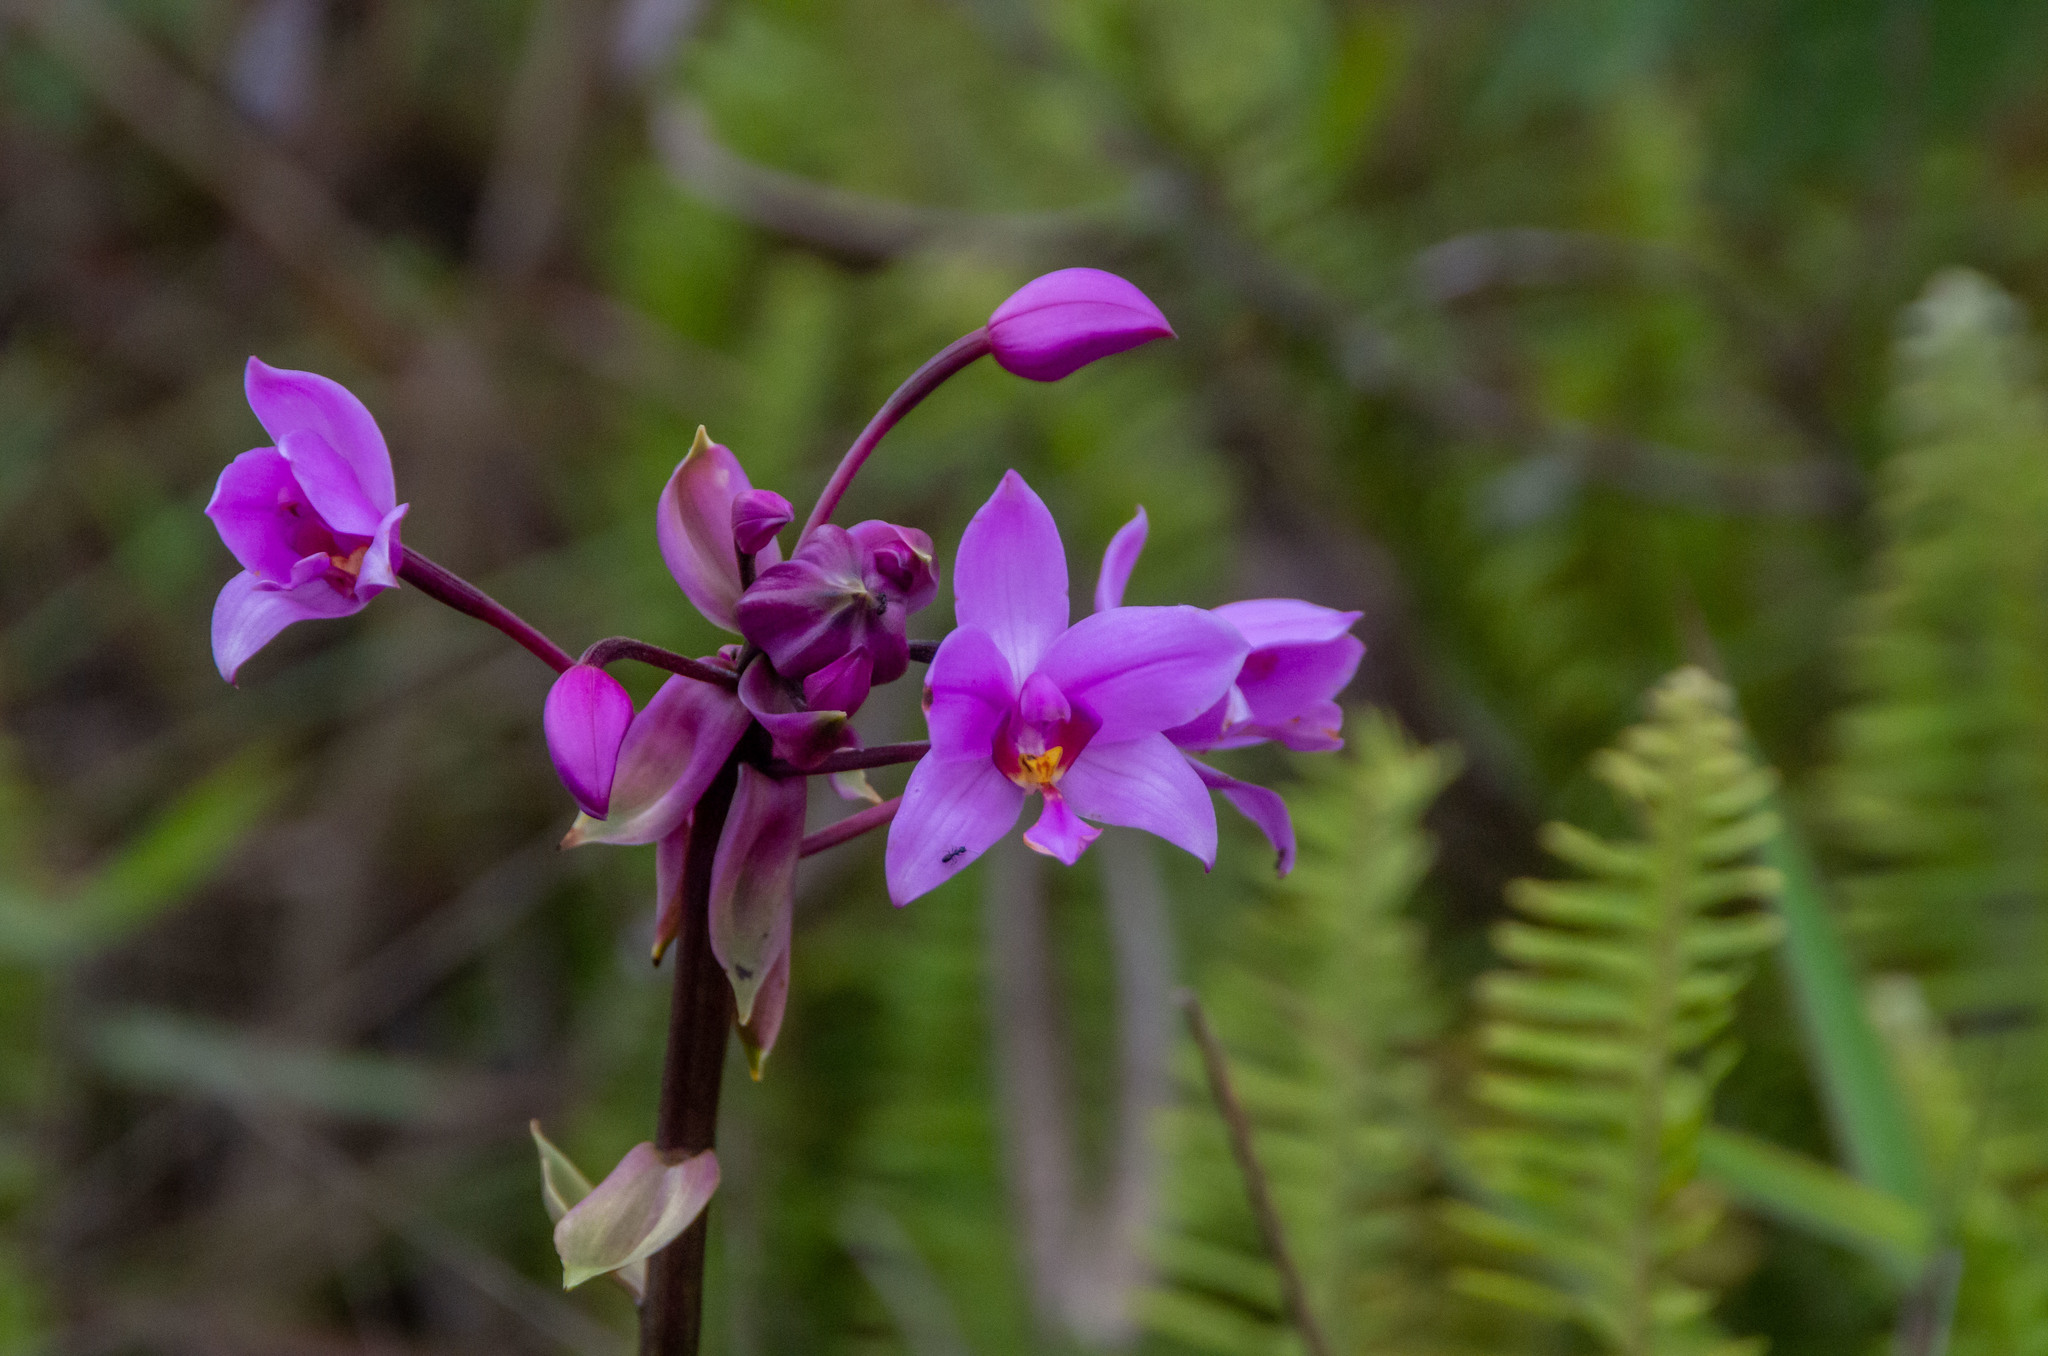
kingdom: Plantae
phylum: Tracheophyta
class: Liliopsida
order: Asparagales
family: Orchidaceae
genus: Spathoglottis
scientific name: Spathoglottis plicata
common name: Philippine ground orchid
